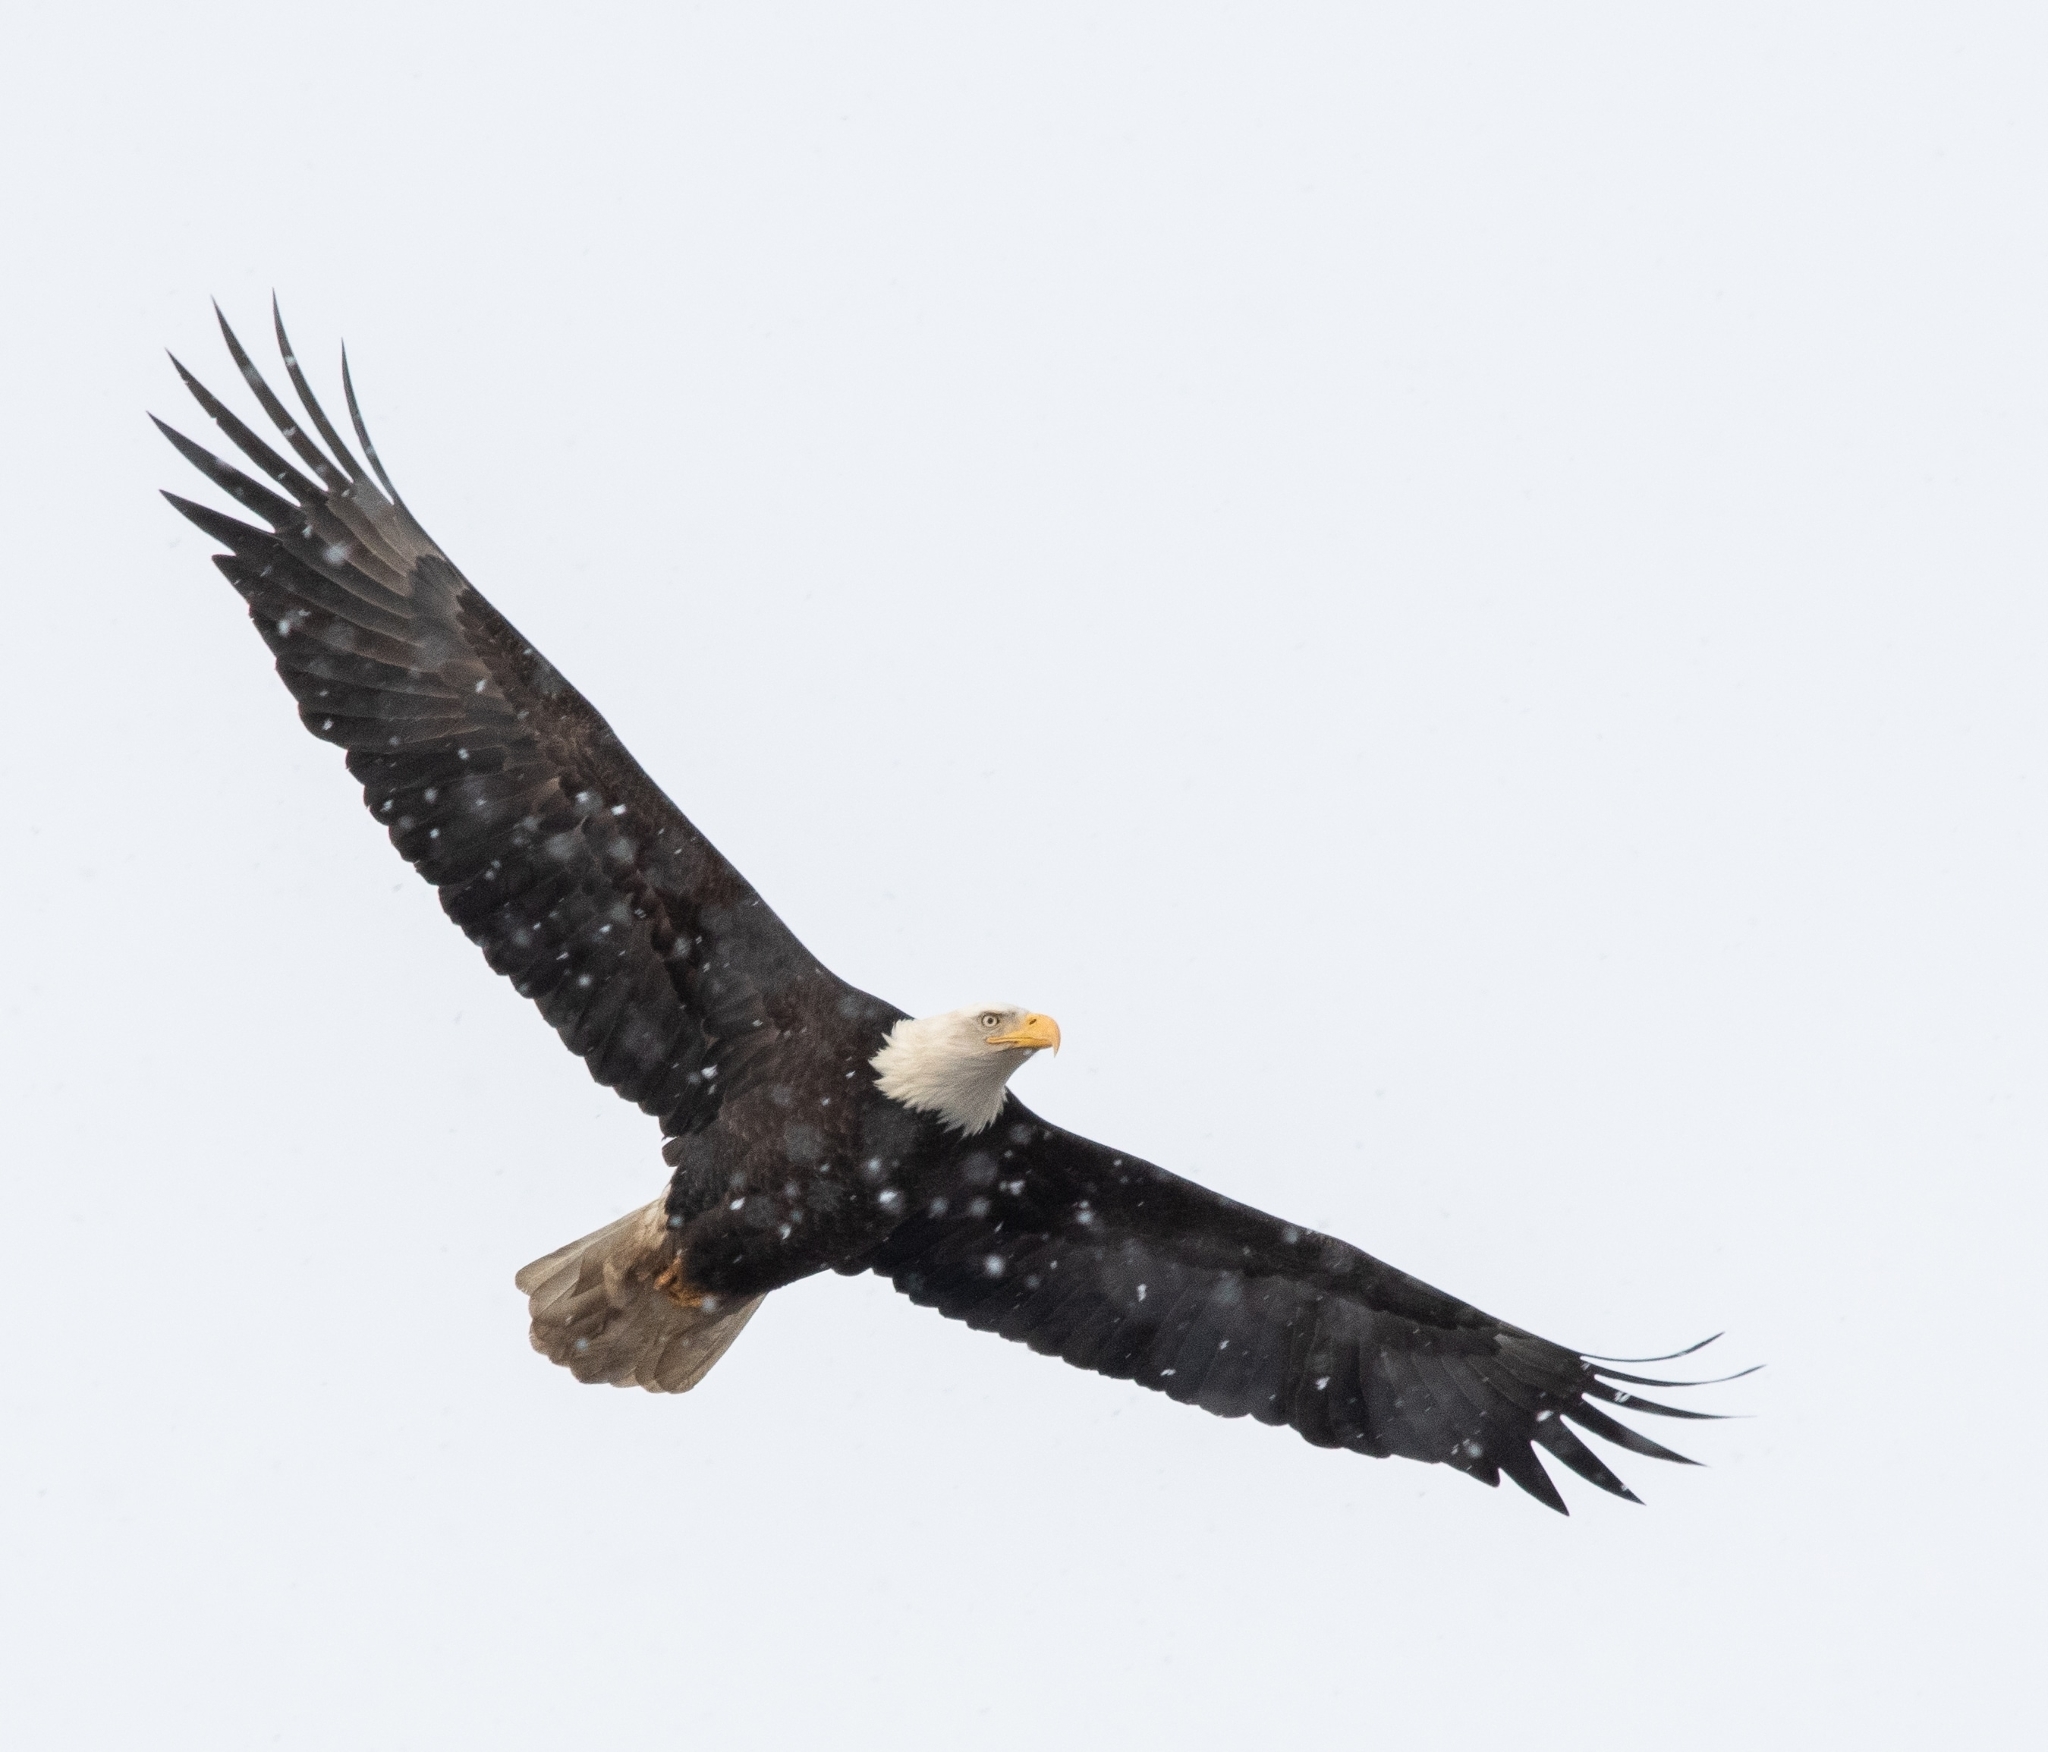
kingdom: Animalia
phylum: Chordata
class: Aves
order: Accipitriformes
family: Accipitridae
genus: Haliaeetus
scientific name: Haliaeetus leucocephalus
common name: Bald eagle
